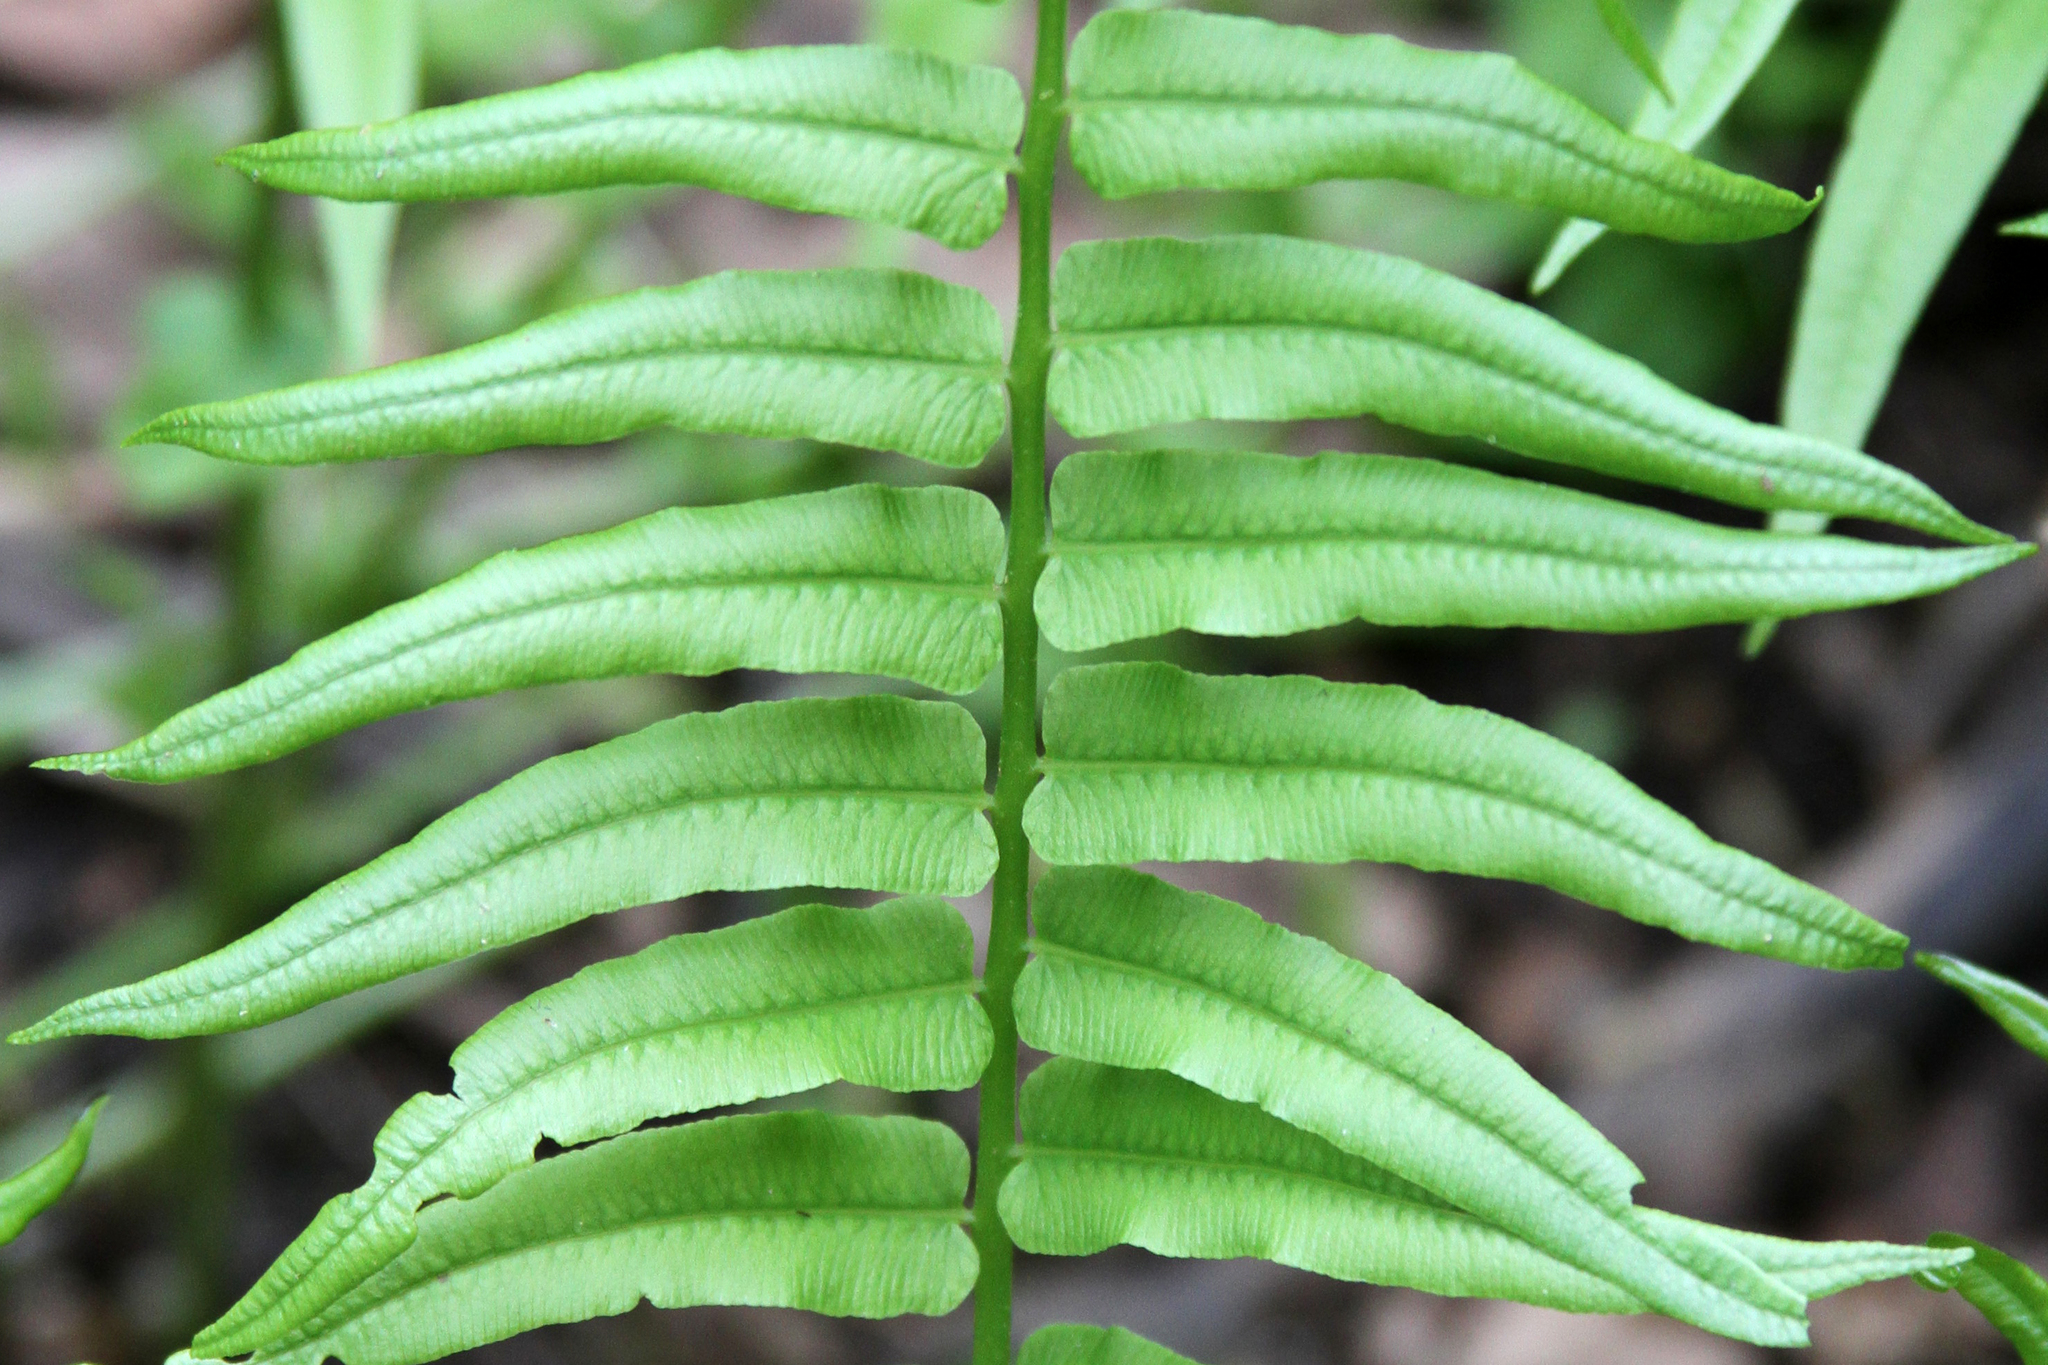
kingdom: Plantae
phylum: Tracheophyta
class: Polypodiopsida
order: Polypodiales
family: Diplaziopsidaceae
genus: Homalosorus
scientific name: Homalosorus pycnocarpos
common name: Glade fern
